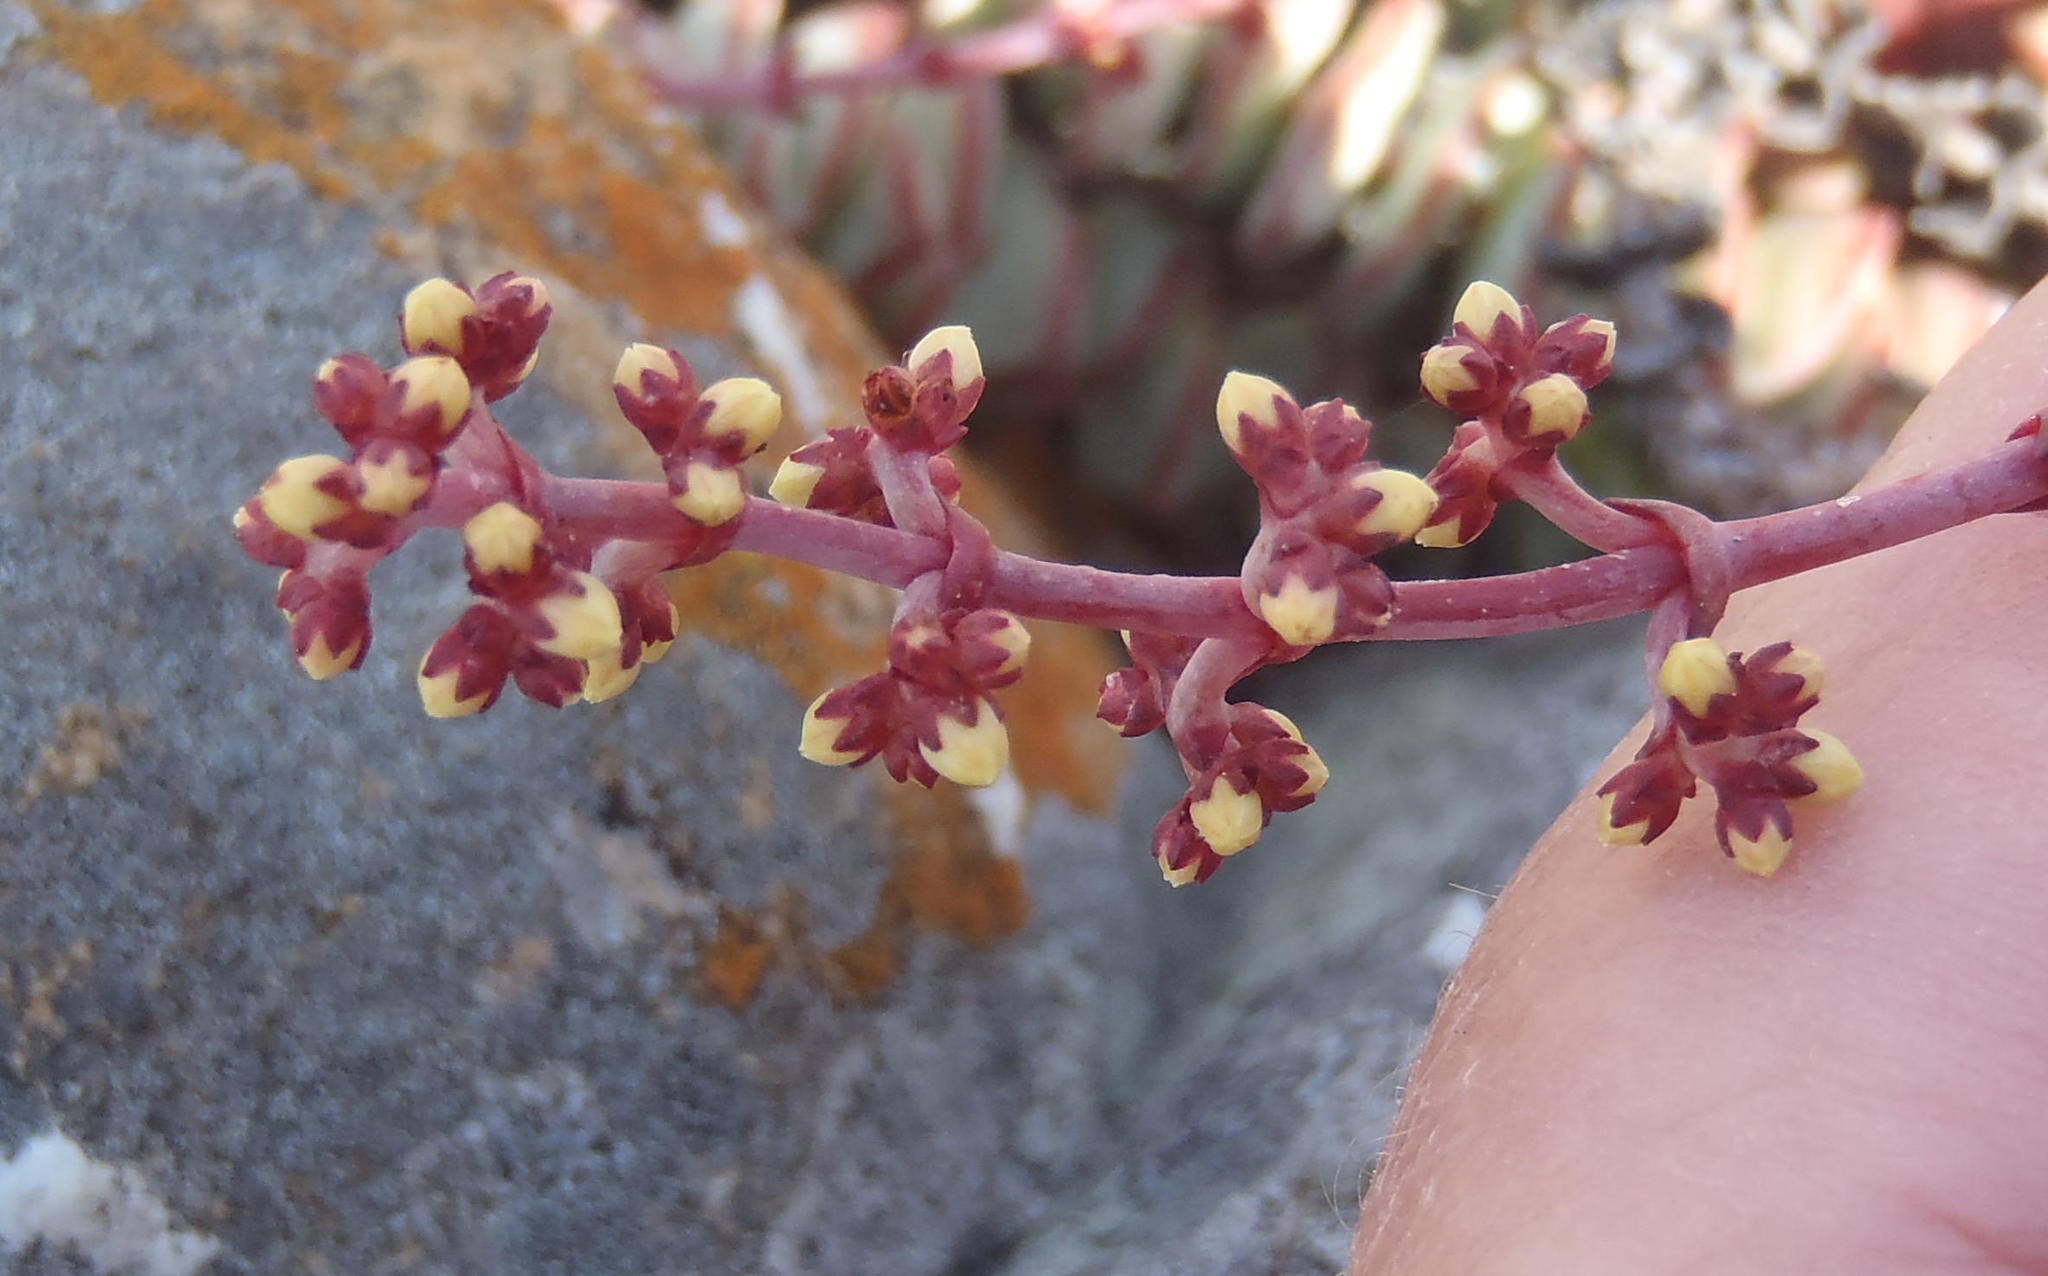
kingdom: Plantae
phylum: Tracheophyta
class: Magnoliopsida
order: Saxifragales
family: Crassulaceae
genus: Crassula
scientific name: Crassula perforata
